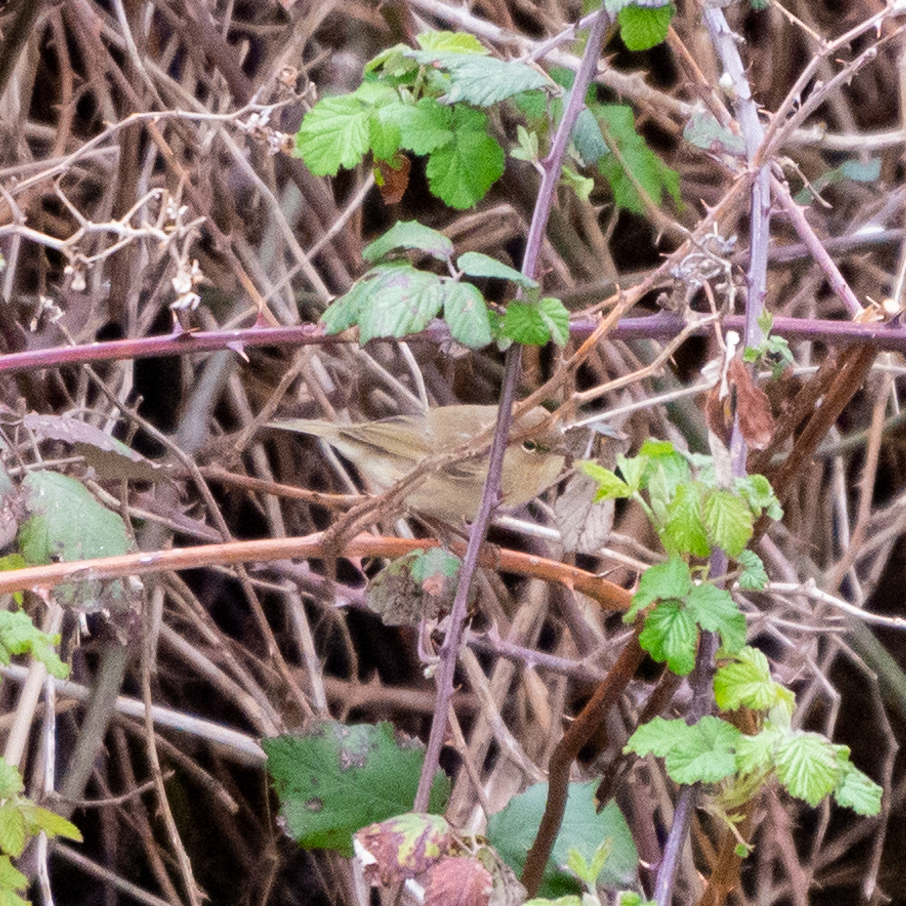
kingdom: Animalia
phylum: Chordata
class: Aves
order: Passeriformes
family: Phylloscopidae
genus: Phylloscopus
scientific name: Phylloscopus collybita
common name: Common chiffchaff
